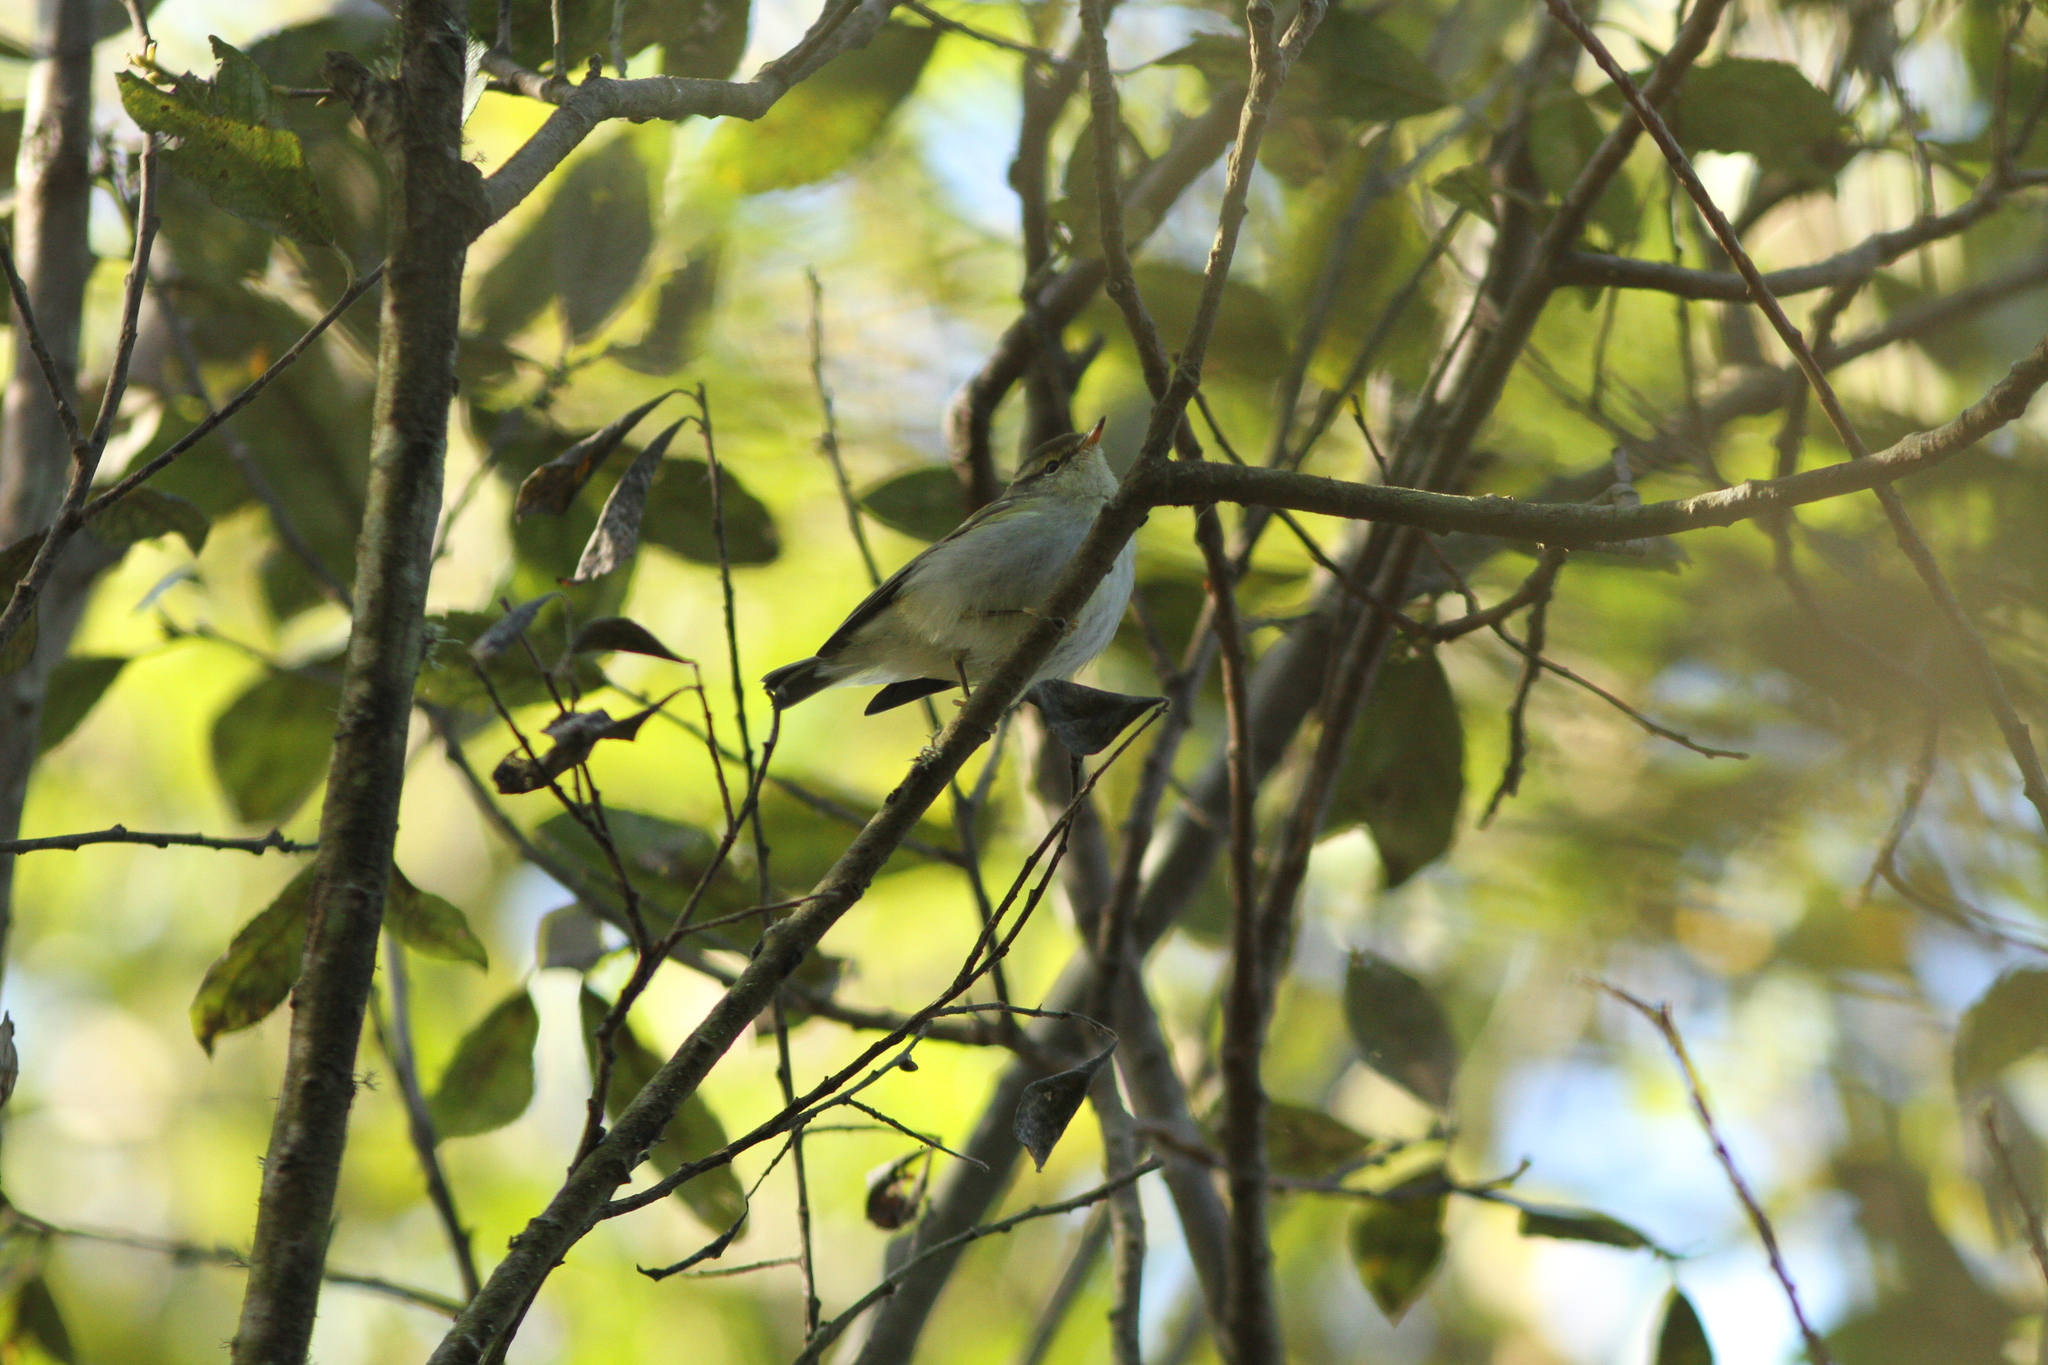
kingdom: Animalia
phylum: Chordata
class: Aves
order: Passeriformes
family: Phylloscopidae
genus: Phylloscopus
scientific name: Phylloscopus inornatus
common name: Yellow-browed warbler
